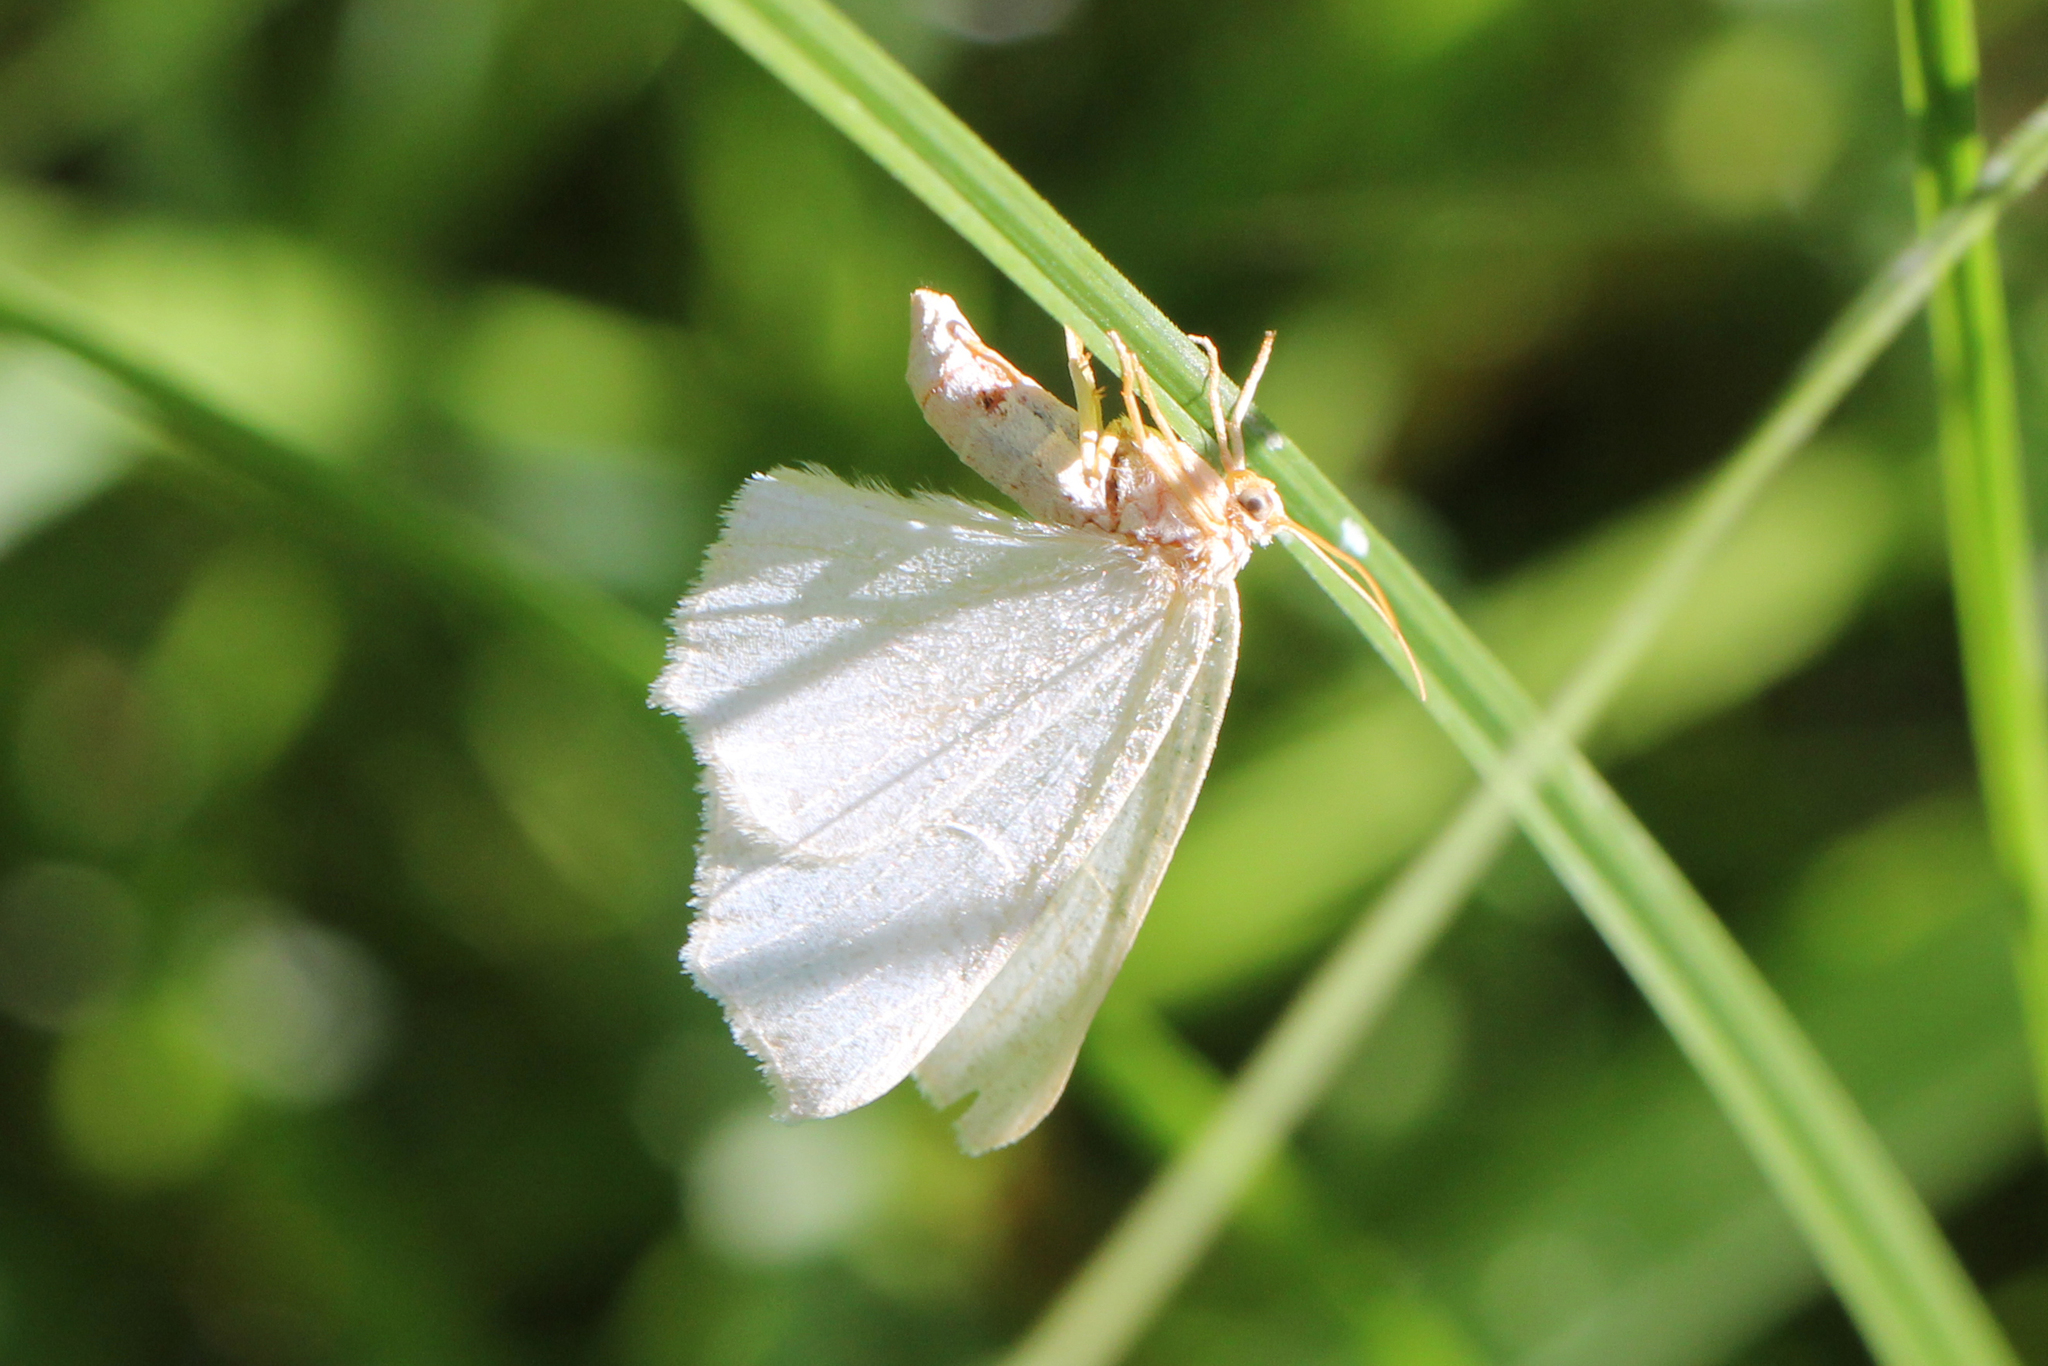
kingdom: Animalia
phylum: Arthropoda
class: Insecta
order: Lepidoptera
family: Geometridae
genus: Ennomos
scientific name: Ennomos subsignaria
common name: Elm spanworm
